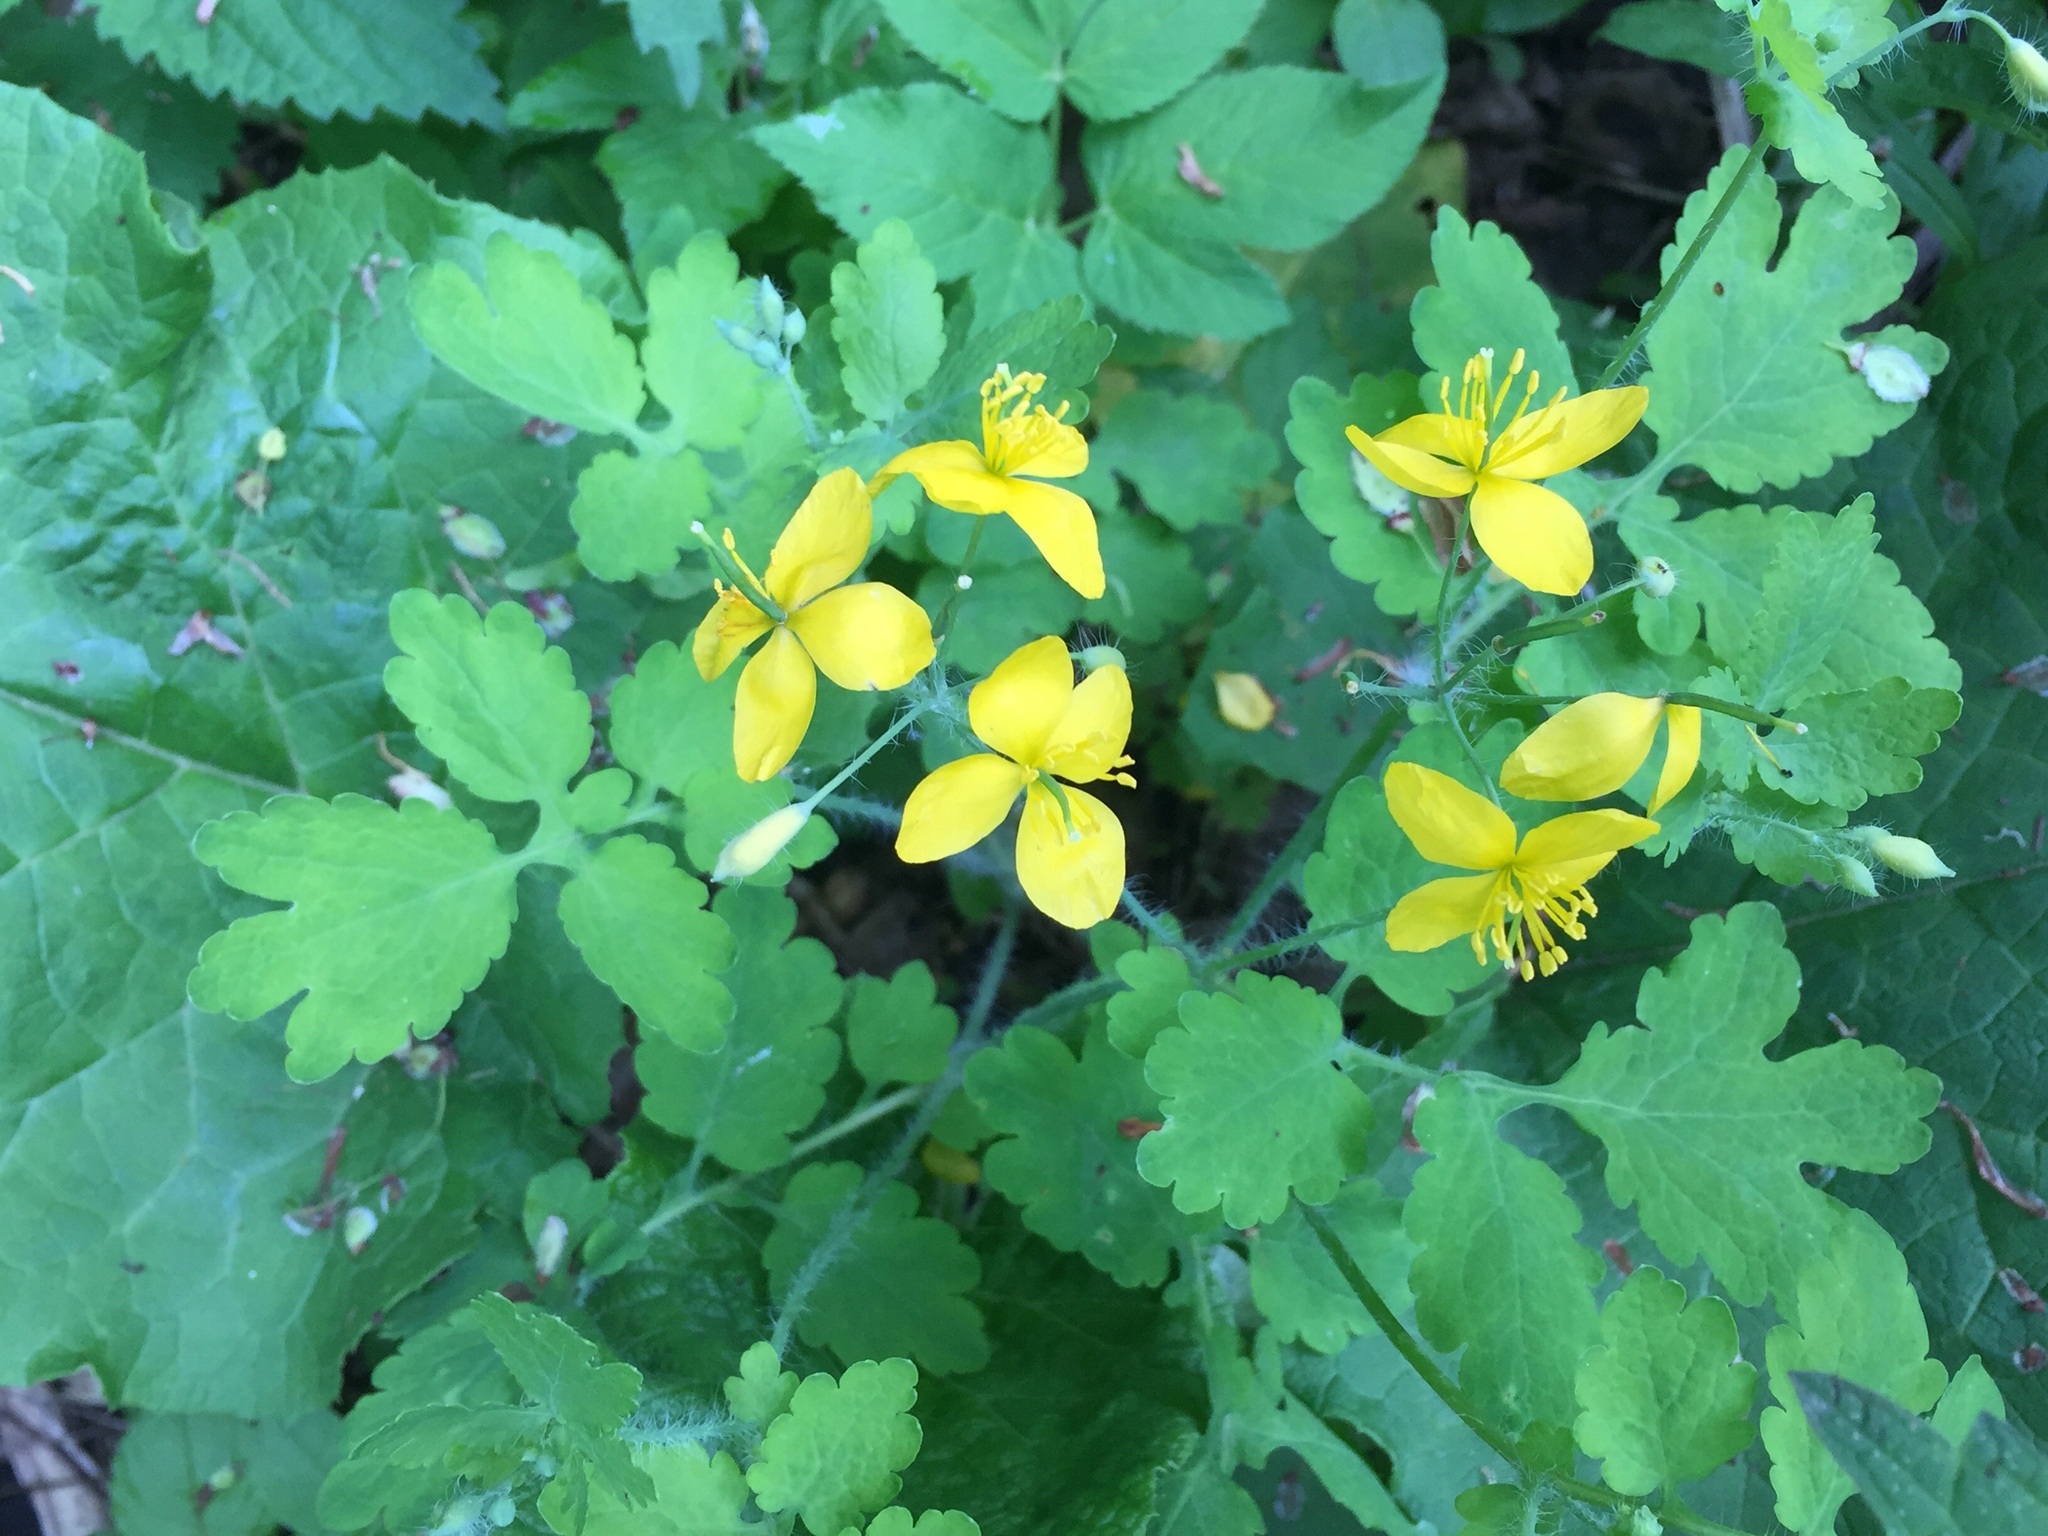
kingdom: Plantae
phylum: Tracheophyta
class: Magnoliopsida
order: Ranunculales
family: Papaveraceae
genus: Chelidonium
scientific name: Chelidonium majus
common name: Greater celandine
